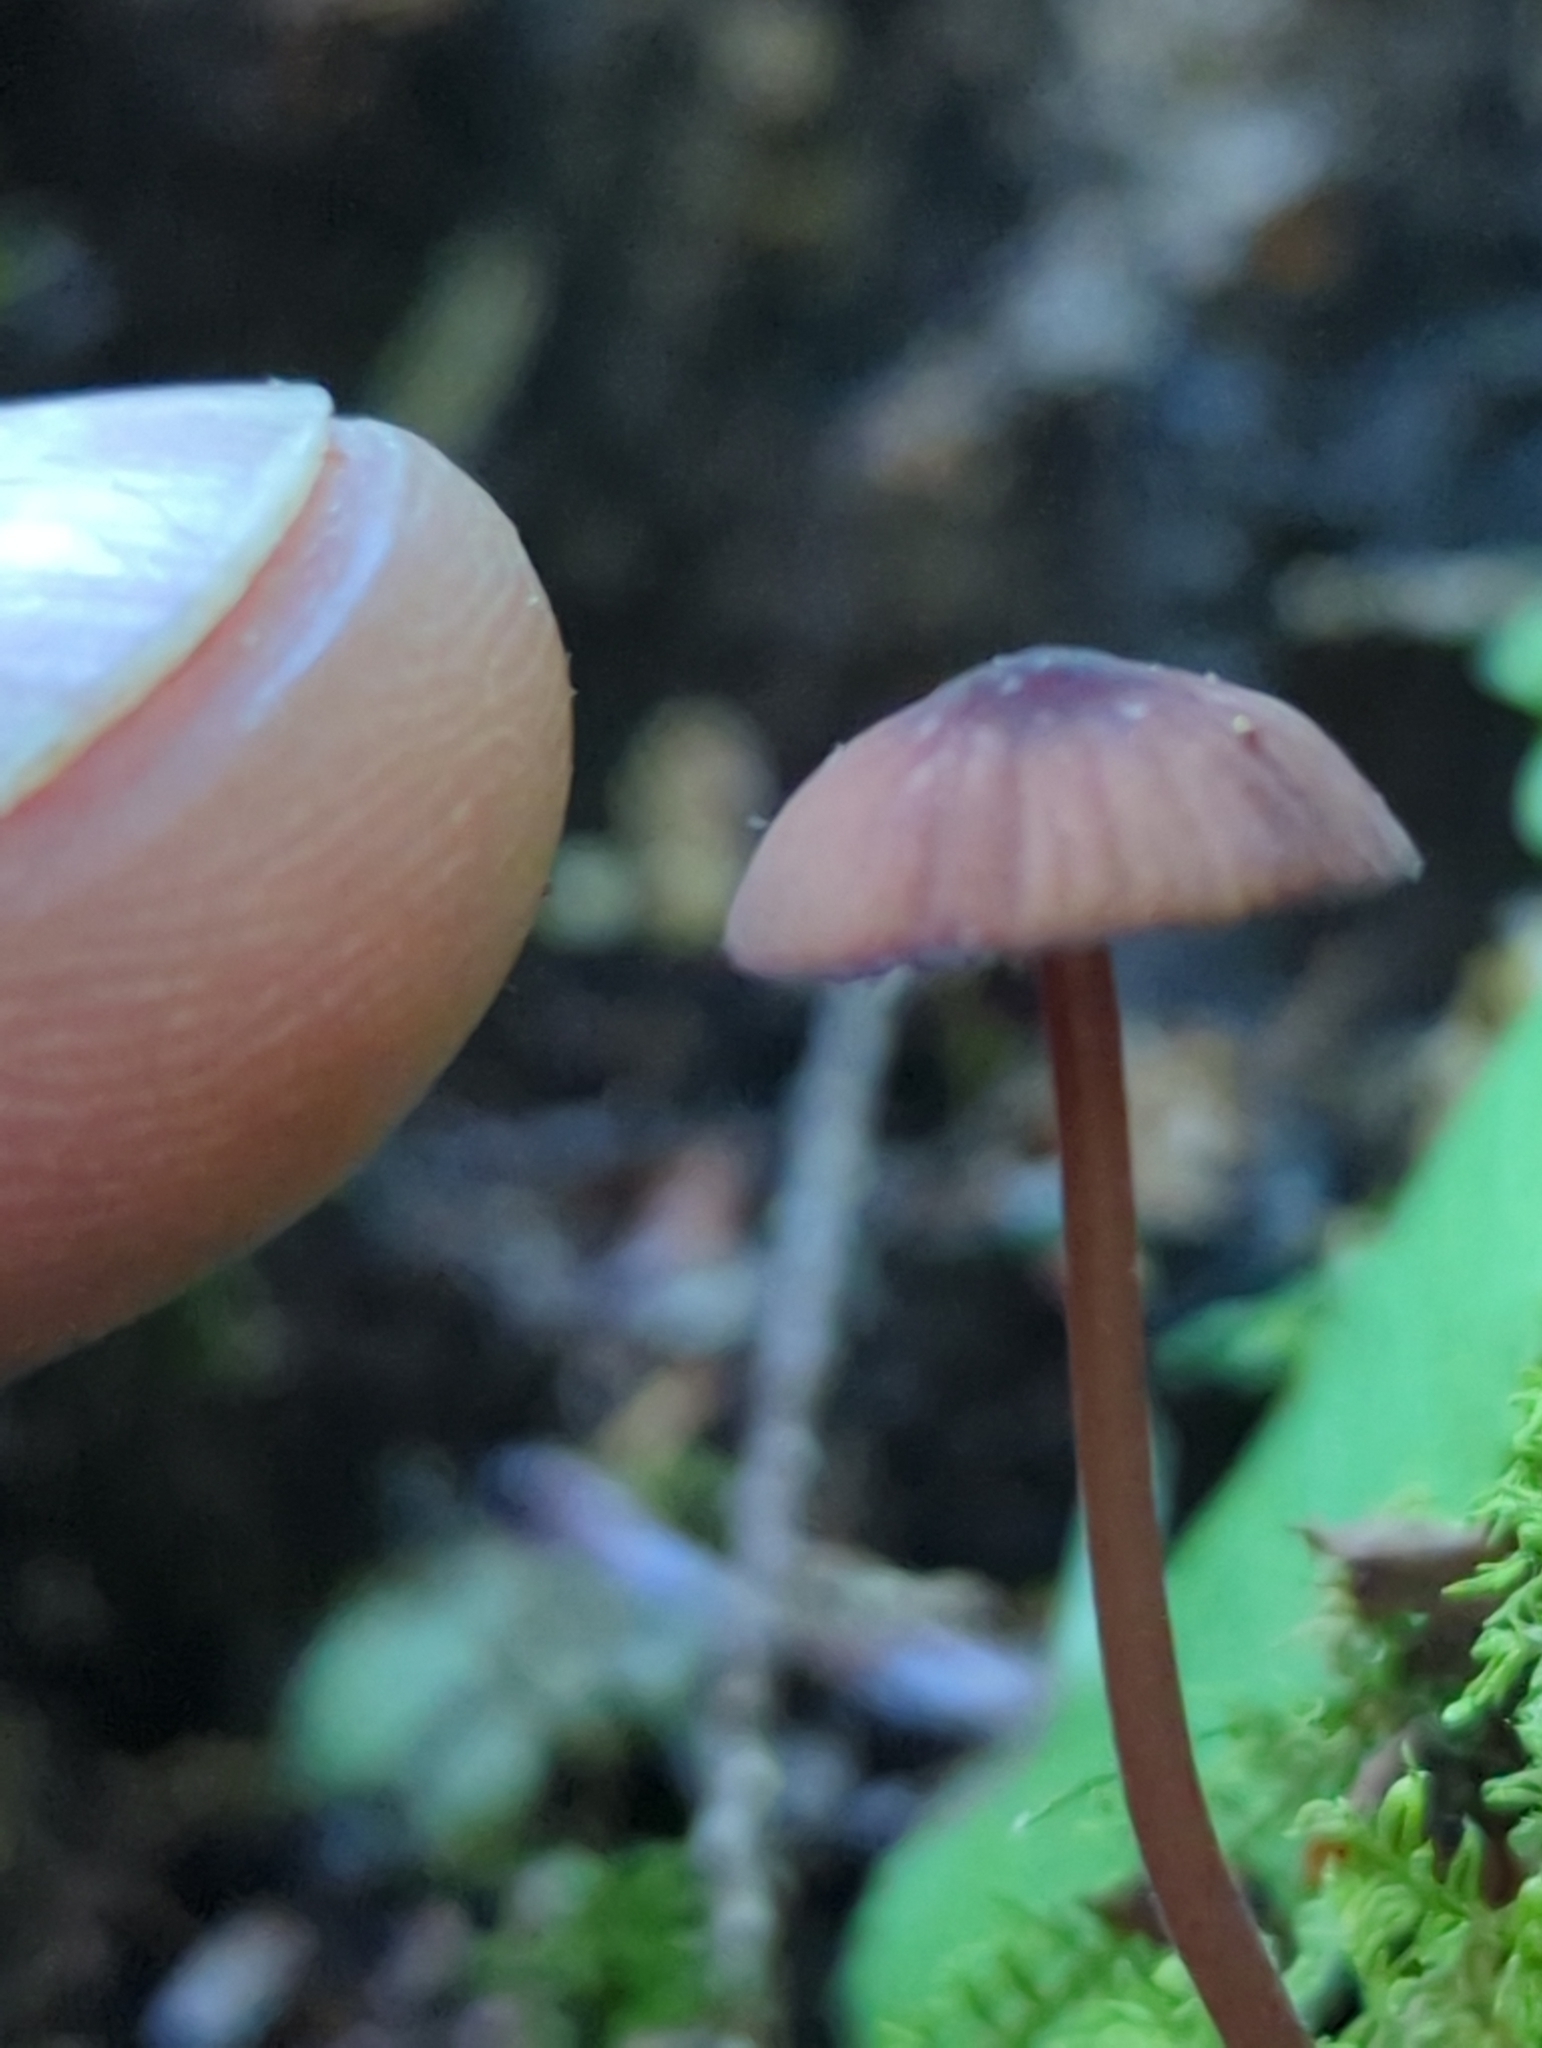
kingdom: Fungi
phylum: Basidiomycota
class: Agaricomycetes
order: Agaricales
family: Mycenaceae
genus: Mycena
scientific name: Mycena sanguinolenta
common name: Bleeding bonnet
